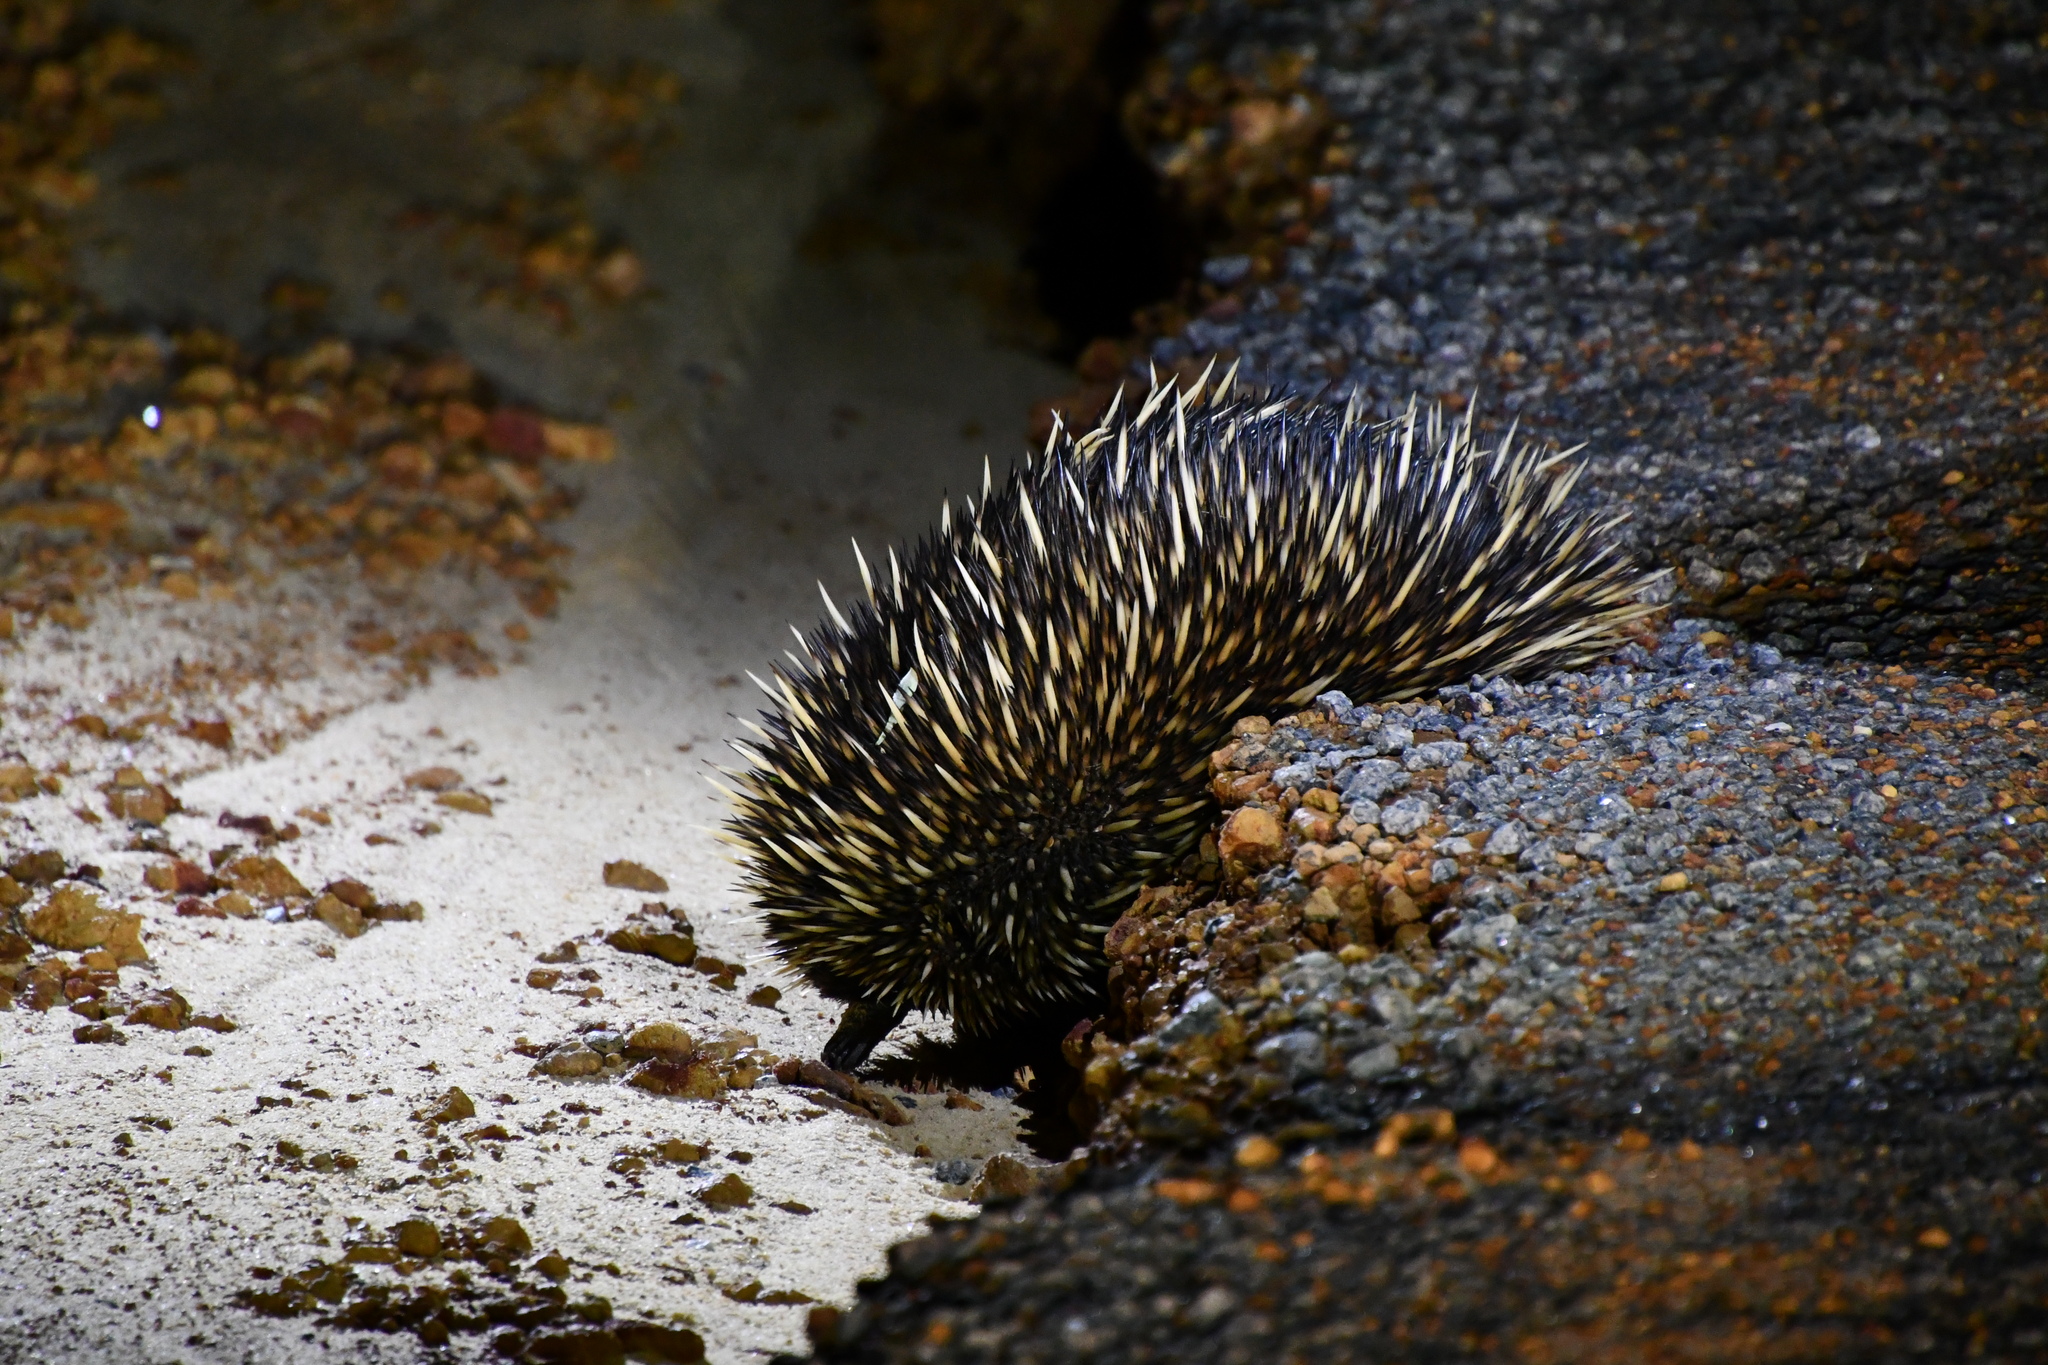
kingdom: Animalia
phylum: Chordata
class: Mammalia
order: Monotremata
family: Tachyglossidae
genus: Tachyglossus
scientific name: Tachyglossus aculeatus
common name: Short-beaked echidna
